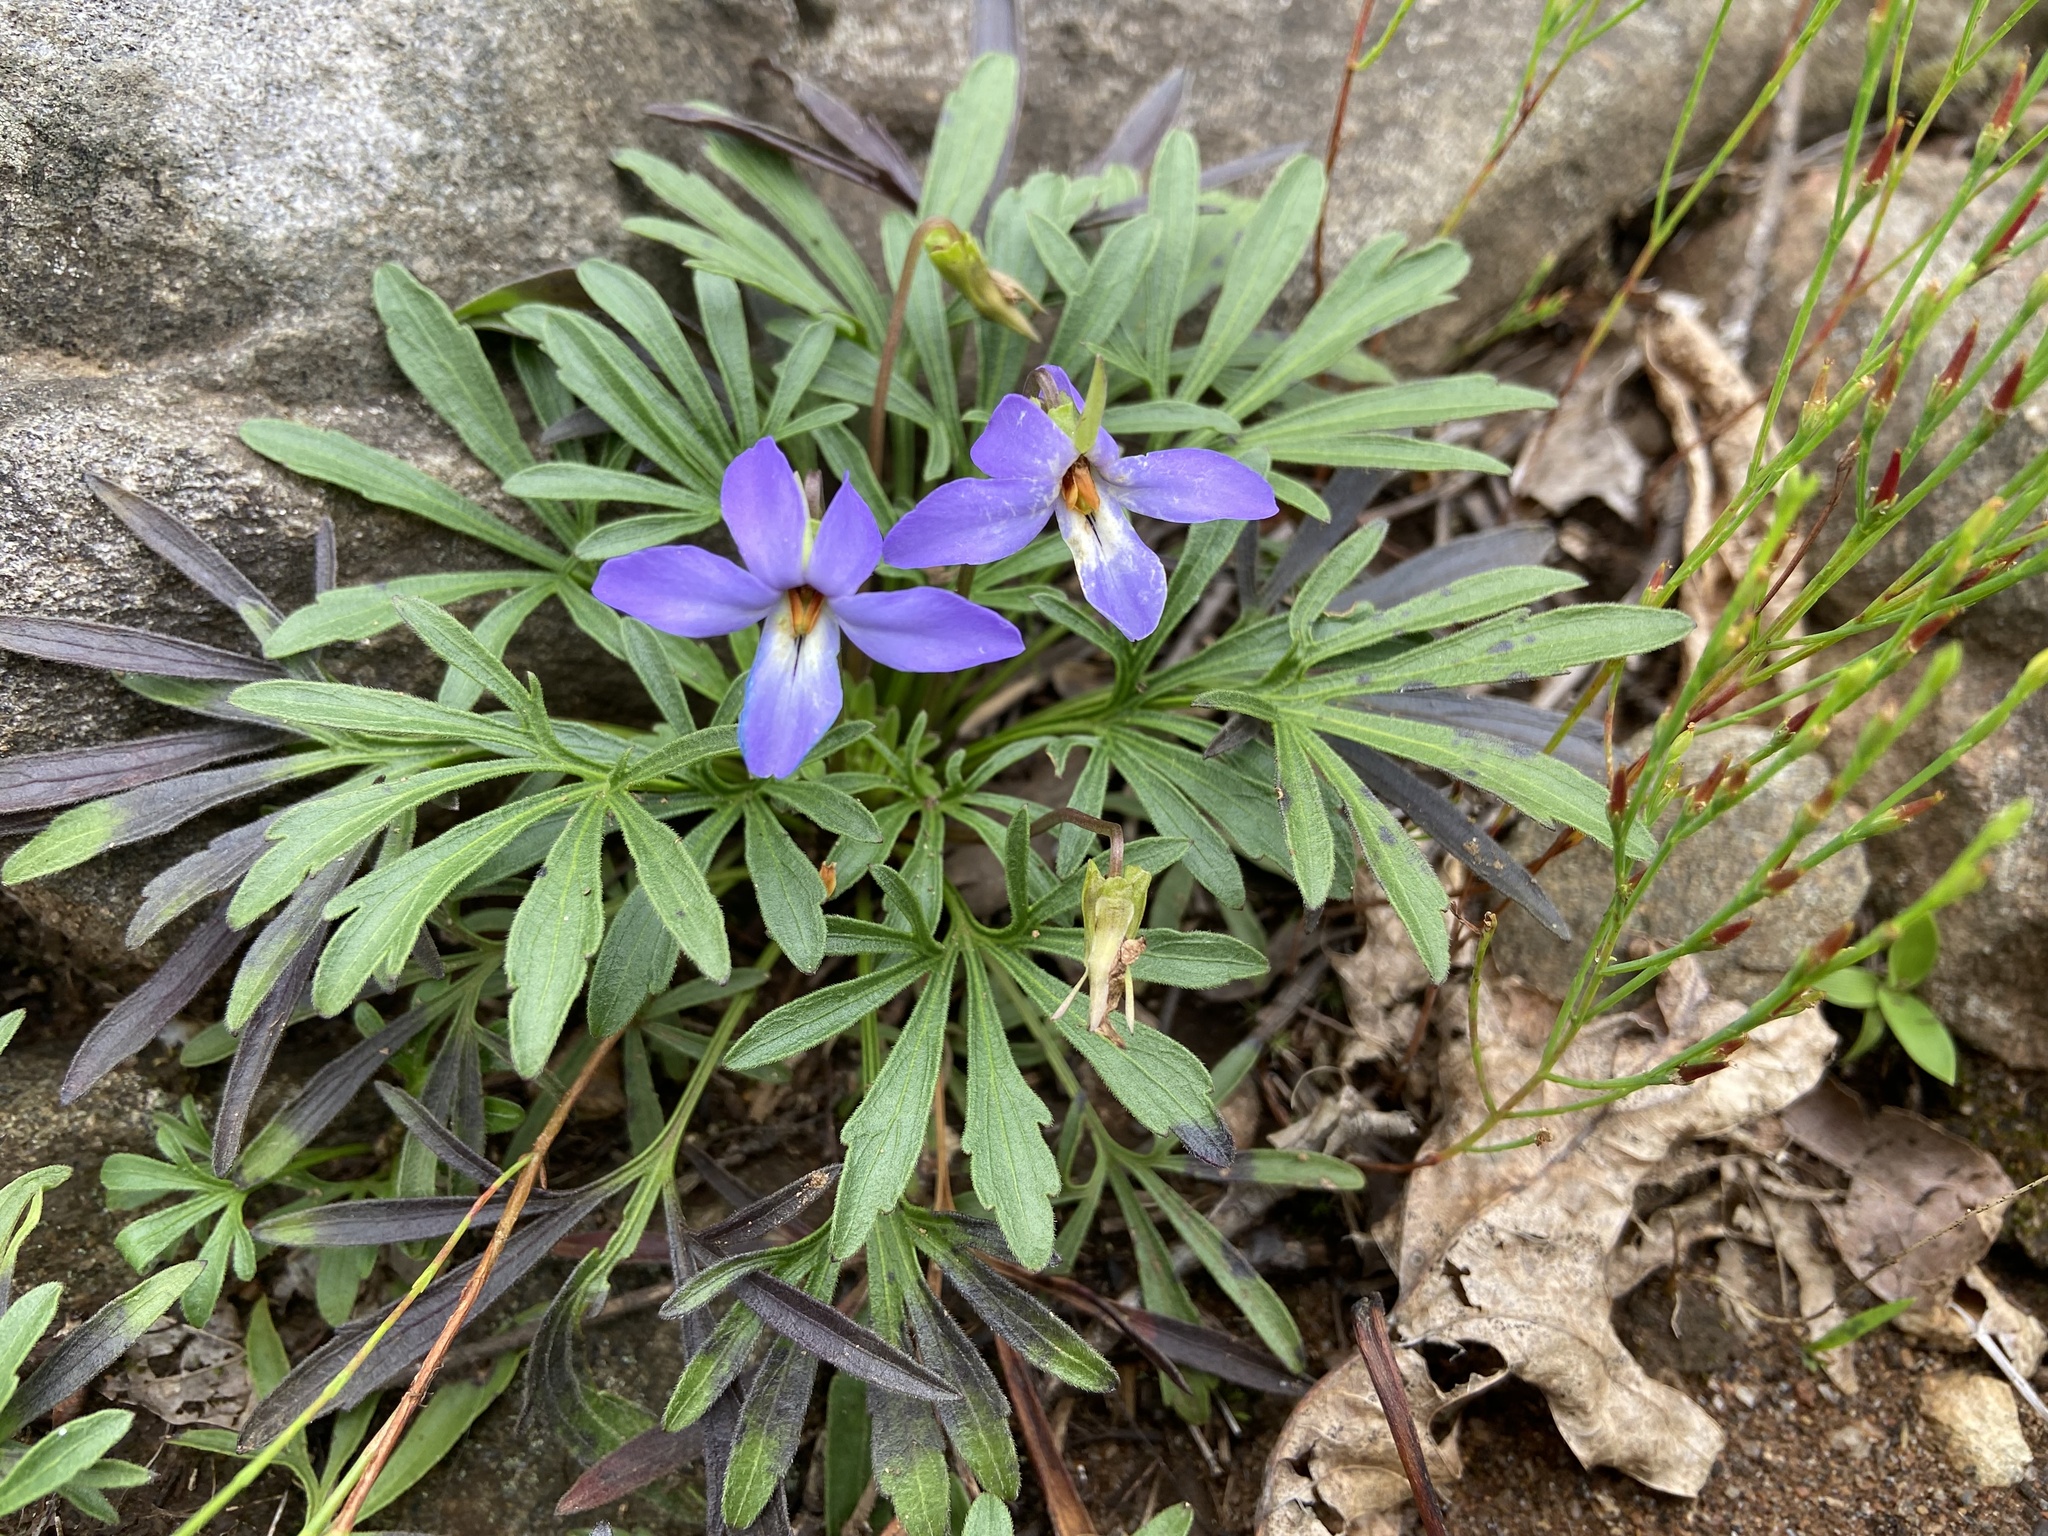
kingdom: Plantae
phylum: Tracheophyta
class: Magnoliopsida
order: Malpighiales
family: Violaceae
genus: Viola
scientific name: Viola pedata
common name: Pansy violet
